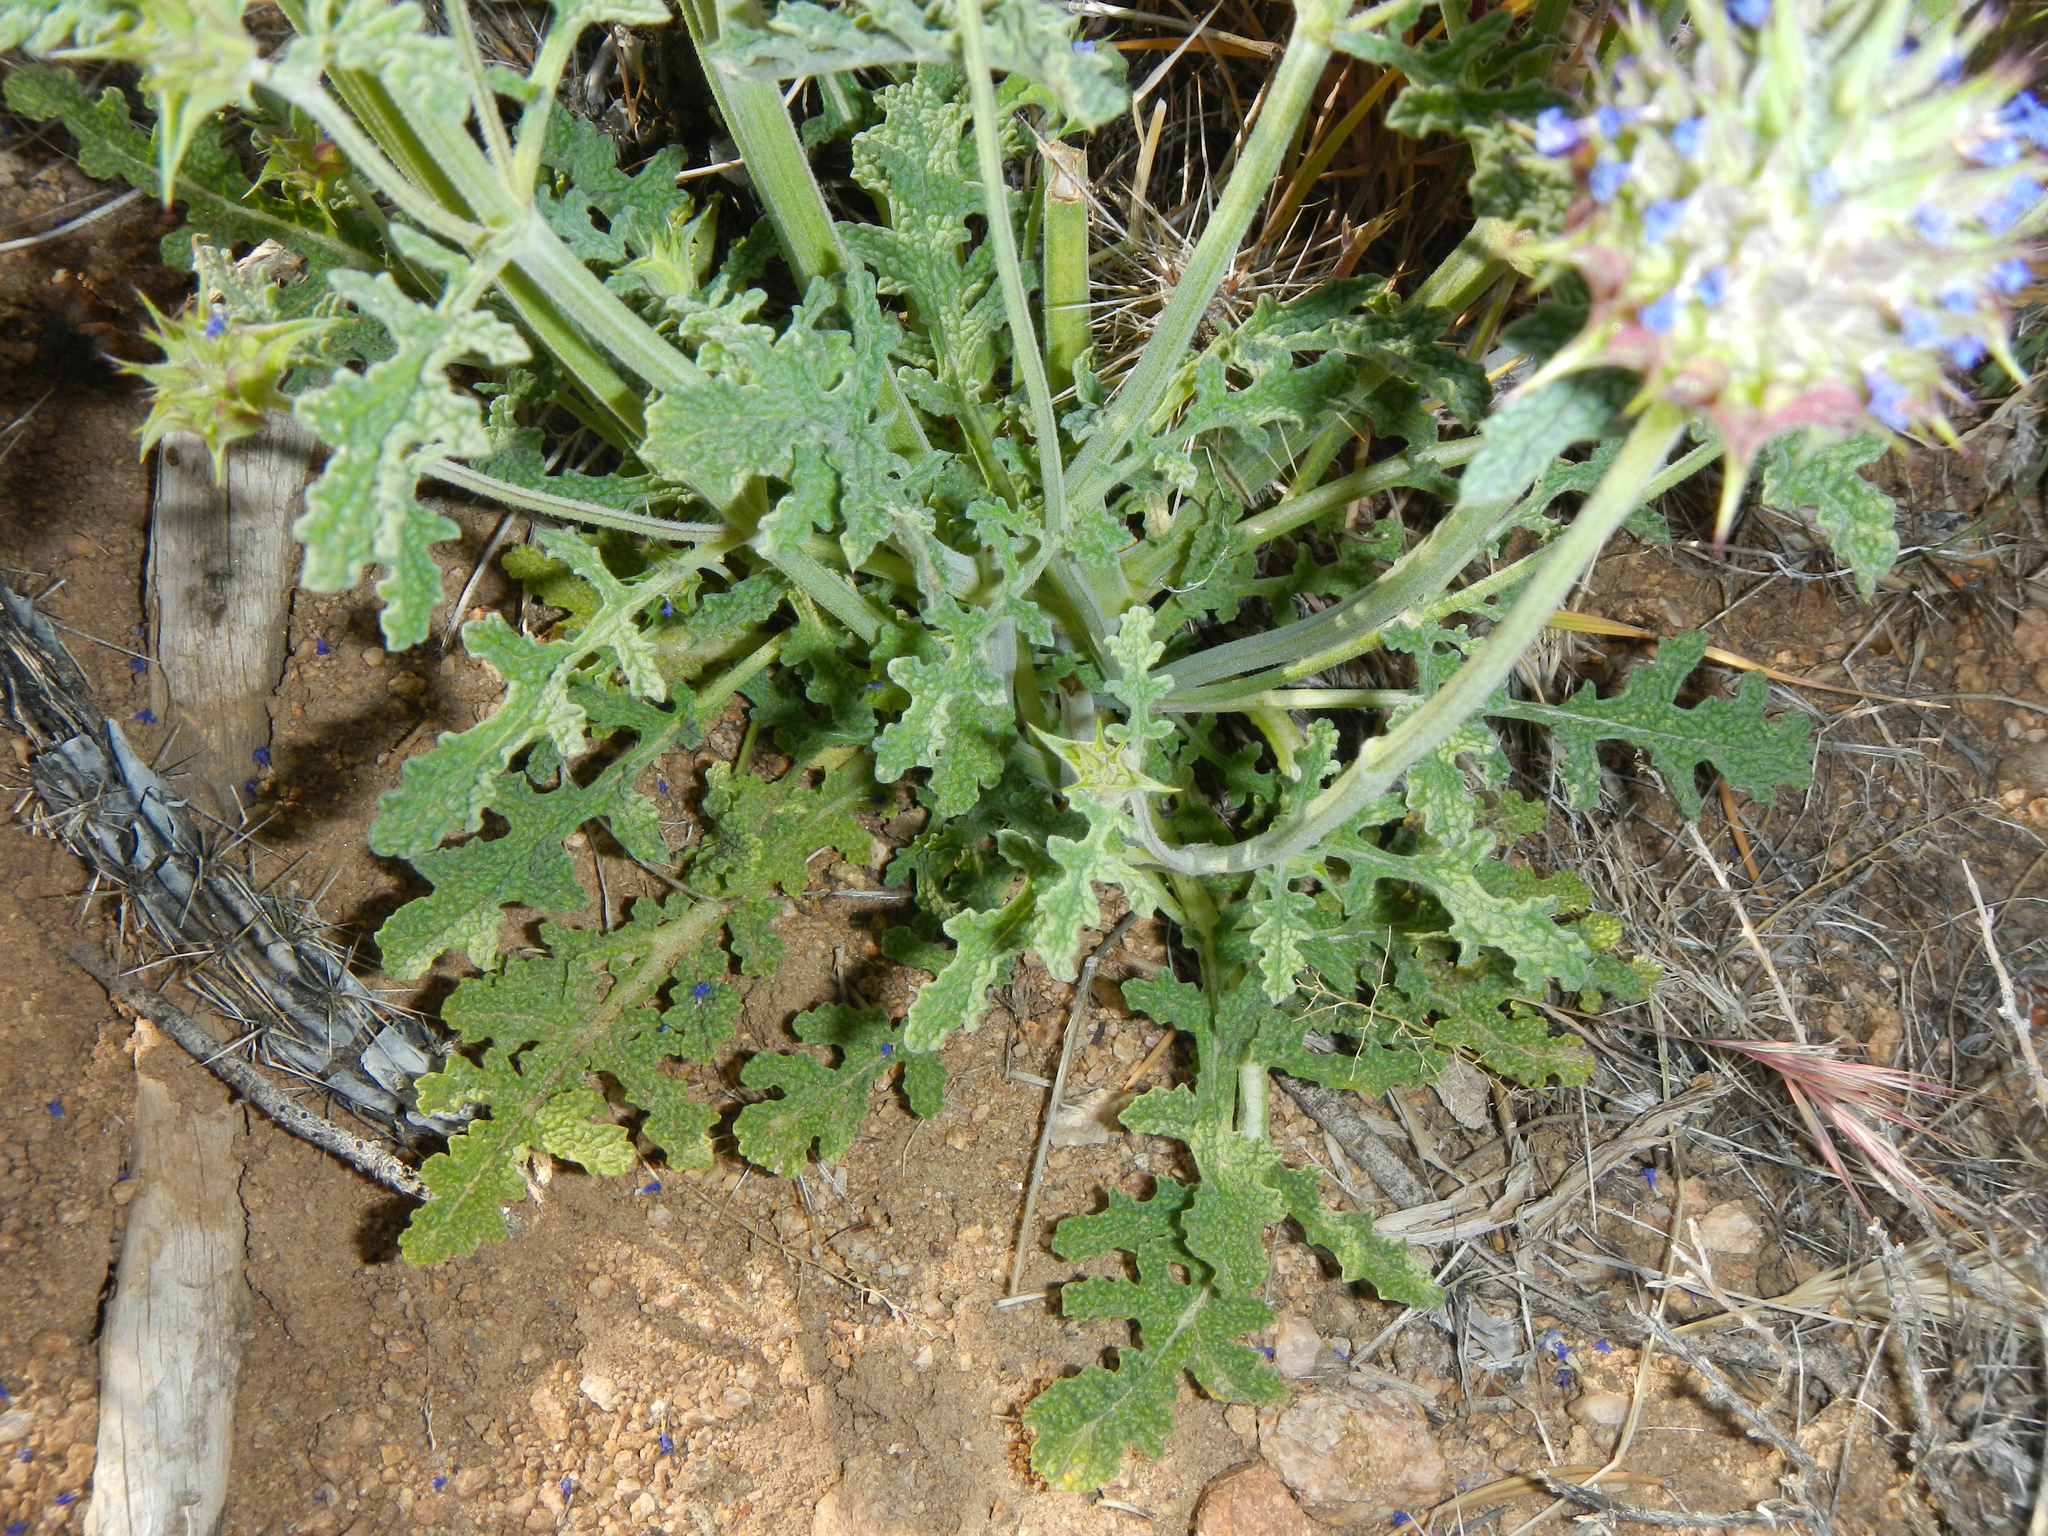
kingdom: Plantae
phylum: Tracheophyta
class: Magnoliopsida
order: Lamiales
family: Lamiaceae
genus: Salvia
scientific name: Salvia columbariae
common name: Chia
